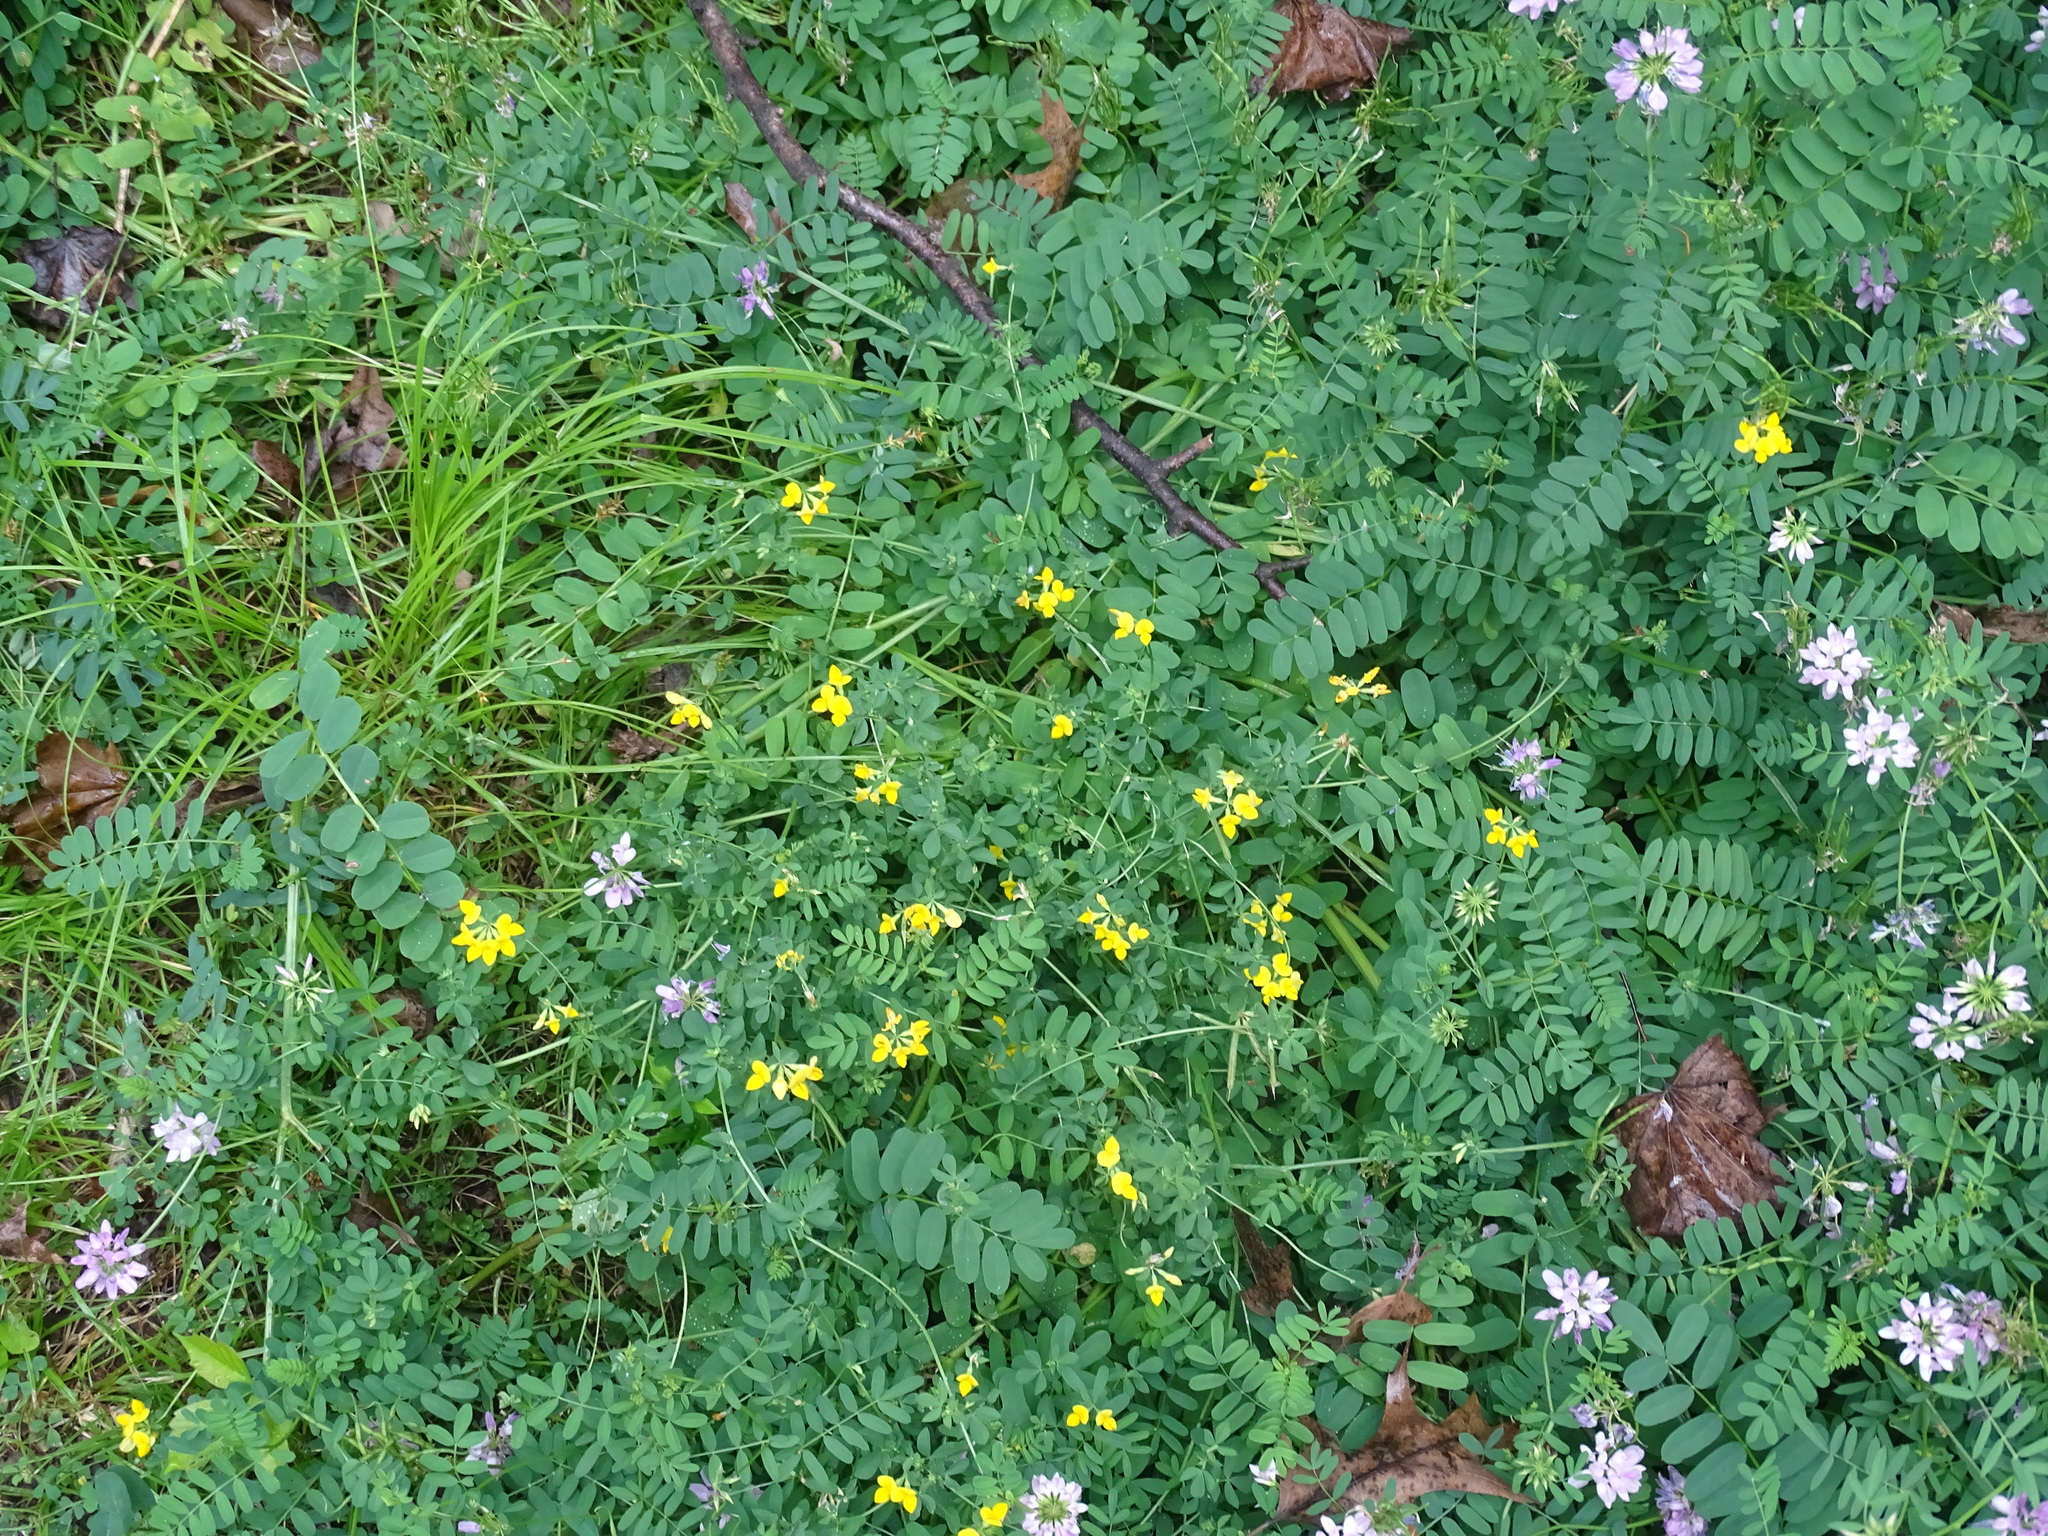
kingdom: Plantae
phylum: Tracheophyta
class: Magnoliopsida
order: Fabales
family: Fabaceae
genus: Lotus
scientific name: Lotus corniculatus
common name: Common bird's-foot-trefoil
